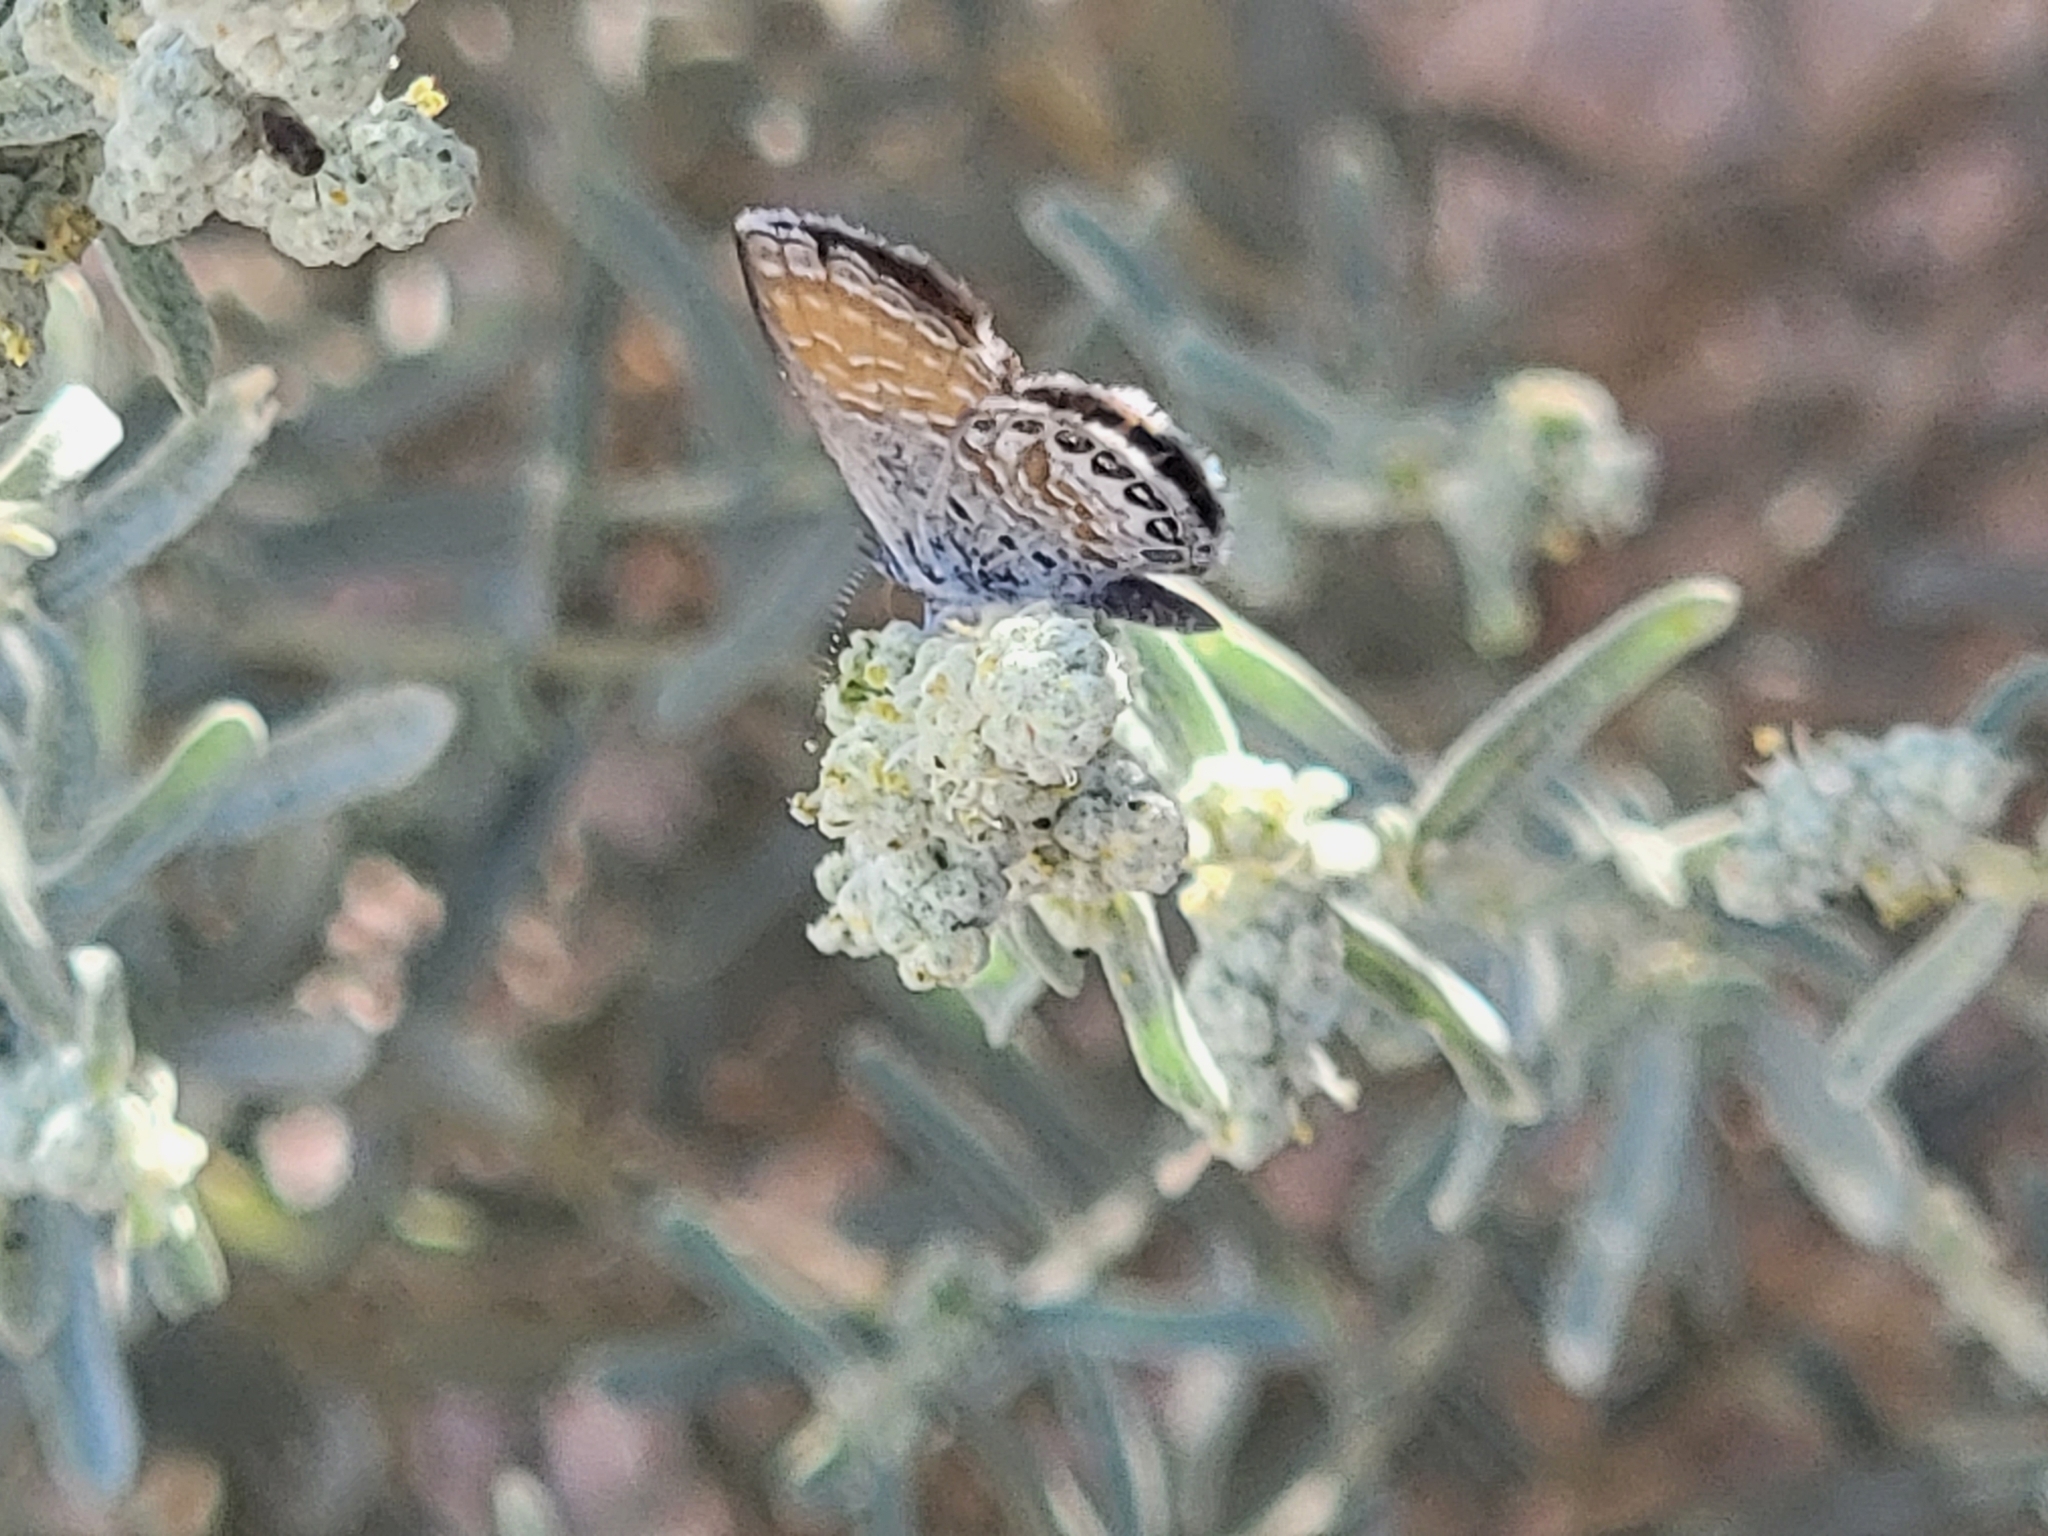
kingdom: Animalia
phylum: Arthropoda
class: Insecta
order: Lepidoptera
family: Lycaenidae
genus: Brephidium
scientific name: Brephidium exilis
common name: Pygmy blue
